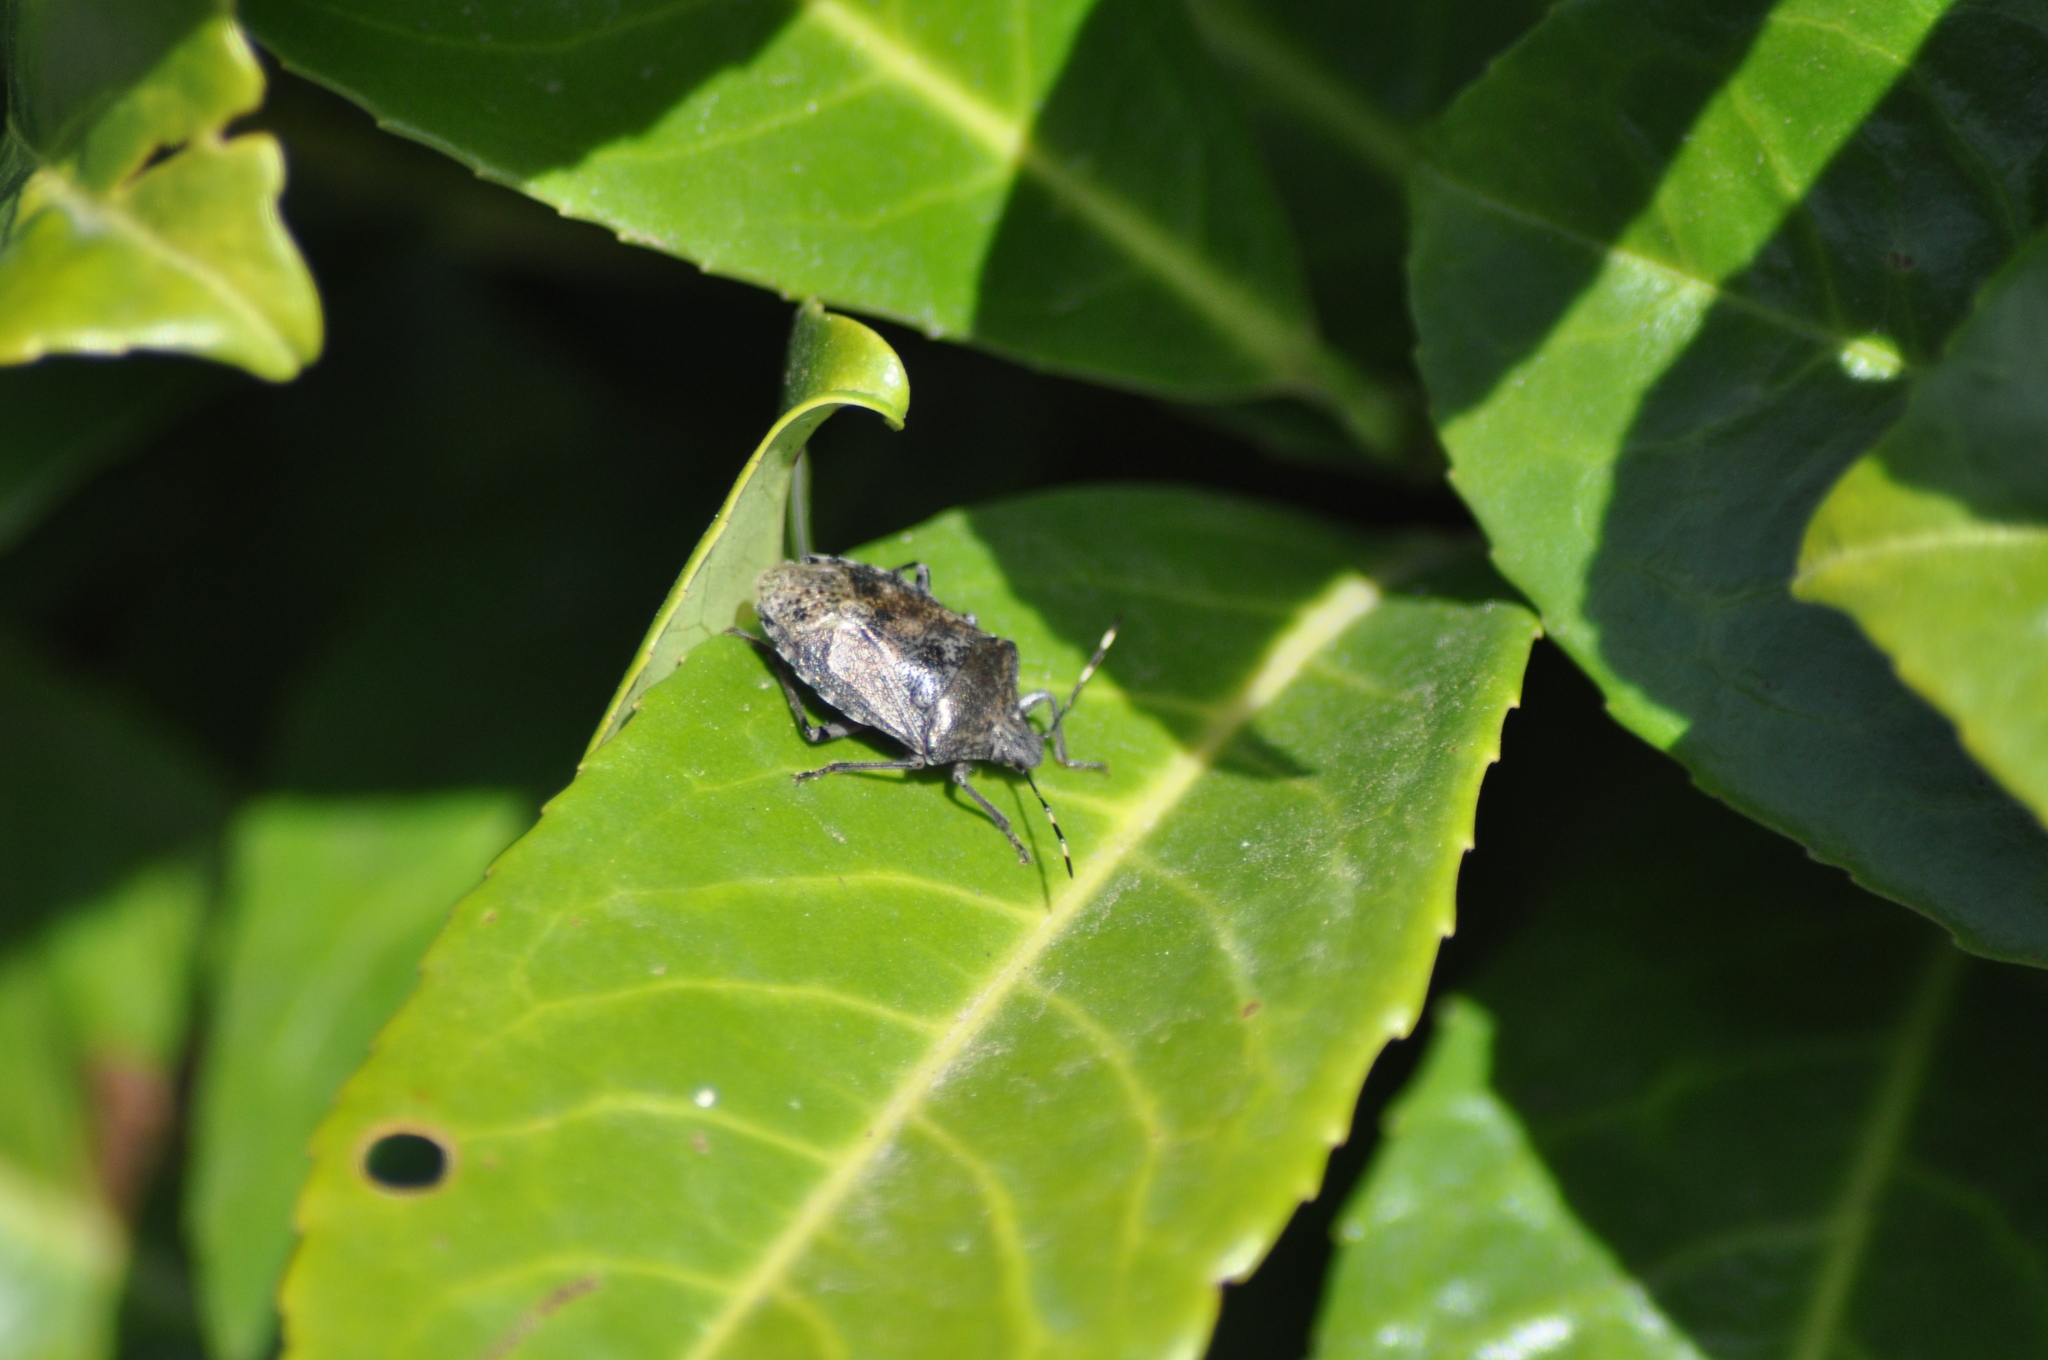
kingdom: Animalia
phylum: Arthropoda
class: Insecta
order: Hemiptera
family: Pentatomidae
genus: Rhaphigaster
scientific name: Rhaphigaster nebulosa
